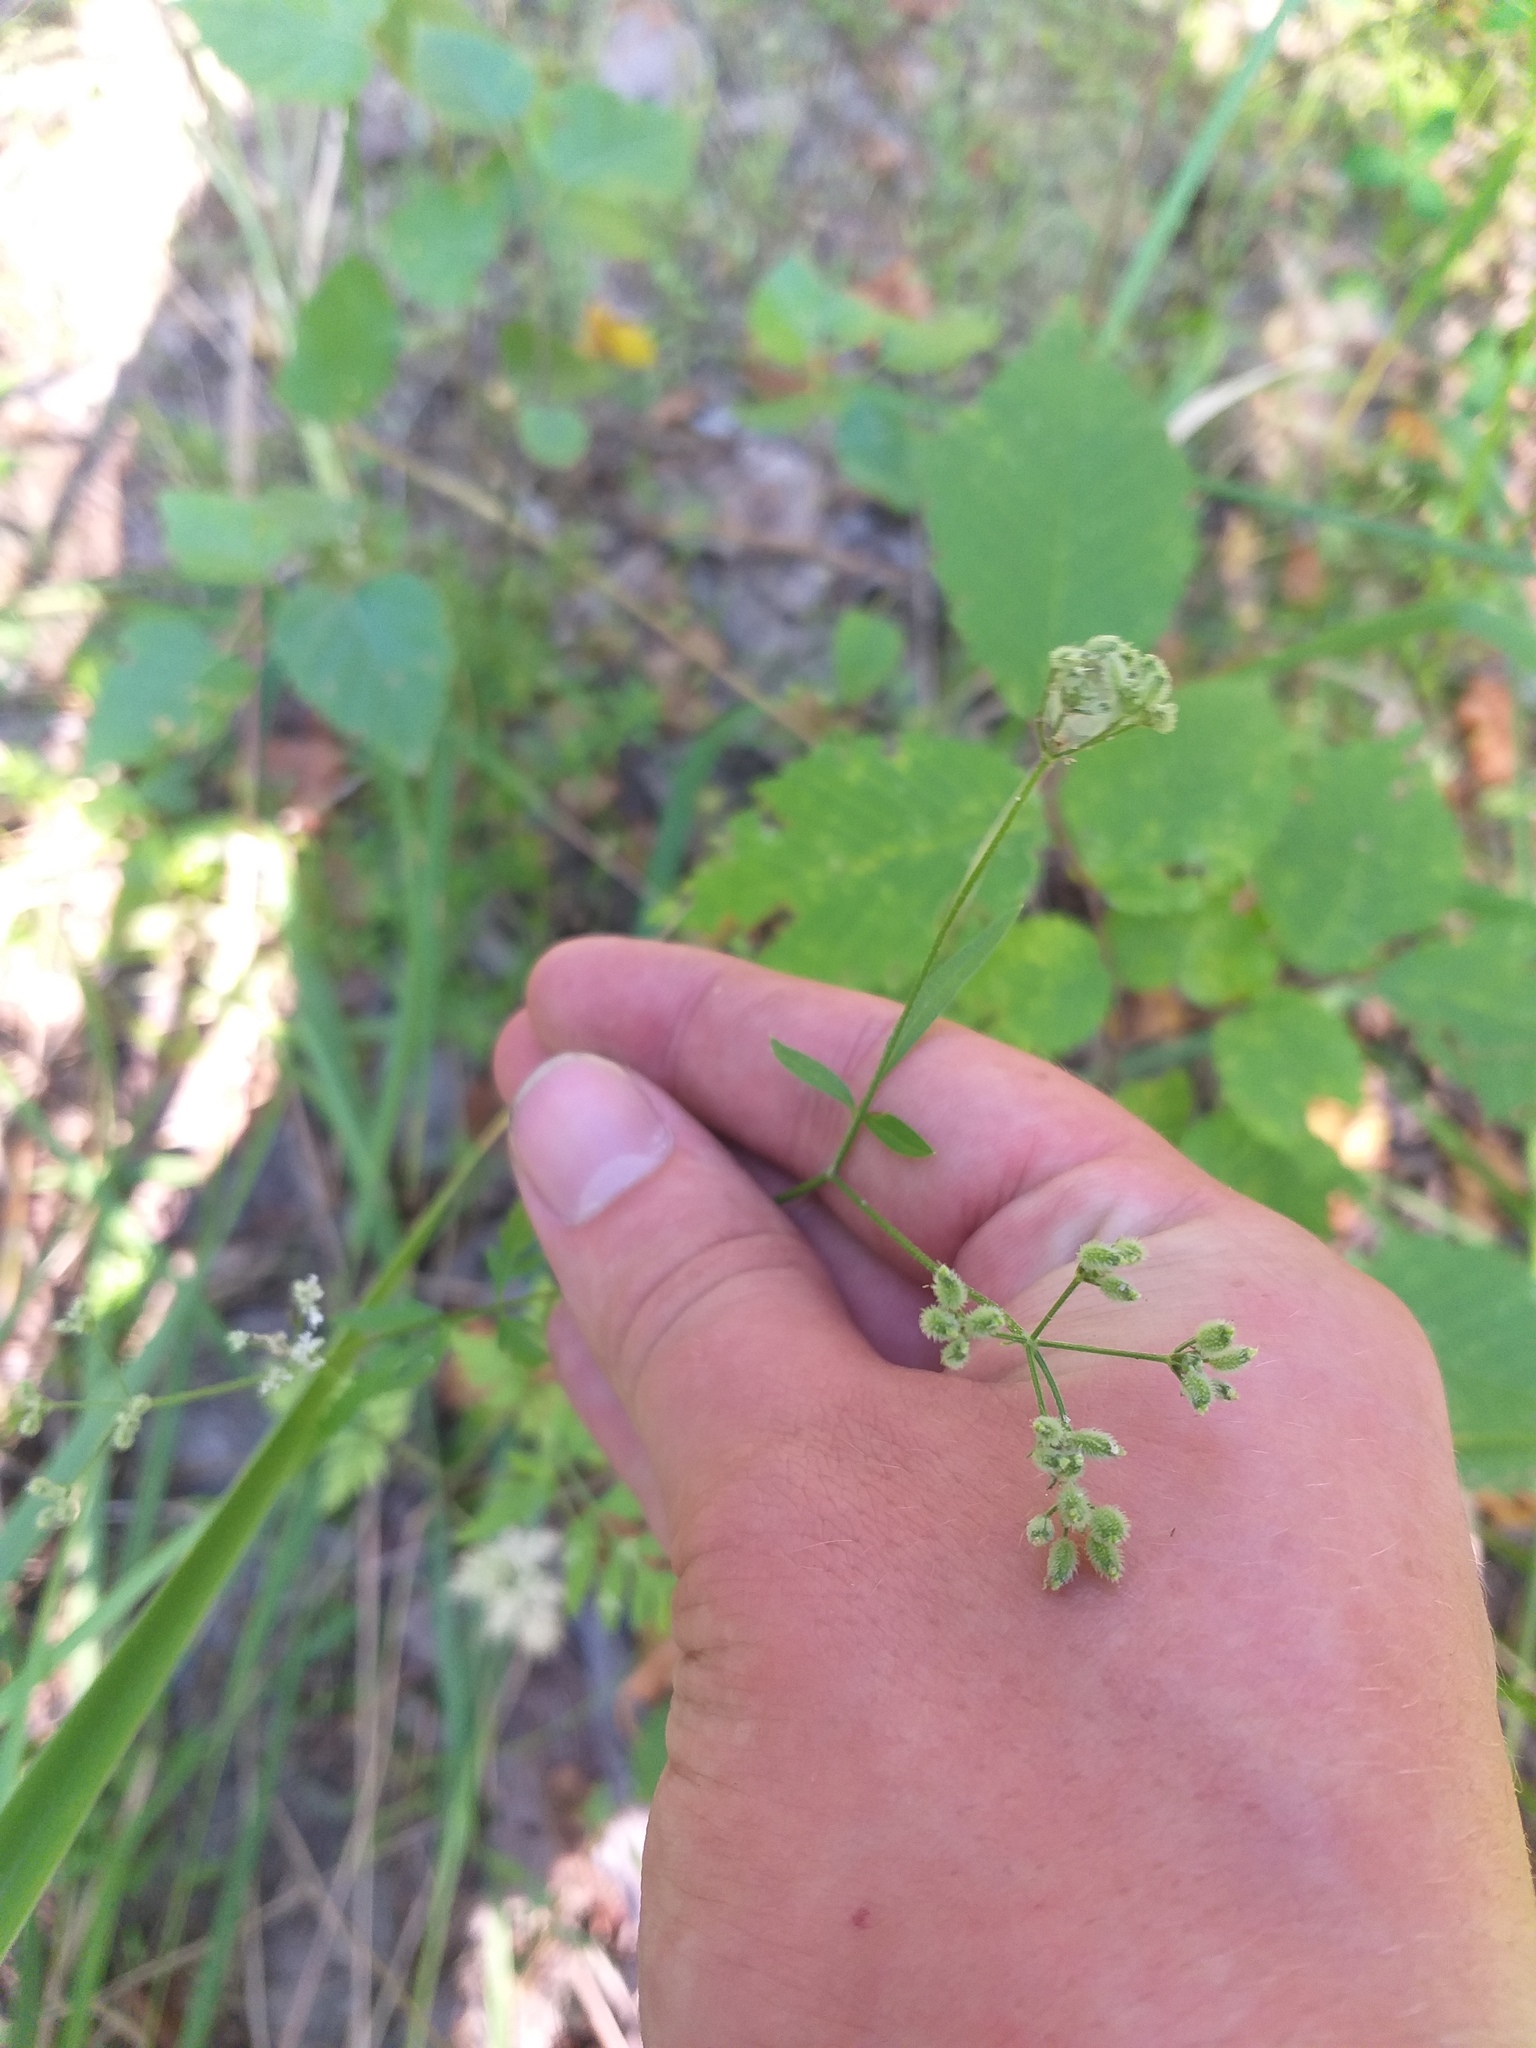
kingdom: Plantae
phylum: Tracheophyta
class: Magnoliopsida
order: Apiales
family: Apiaceae
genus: Torilis
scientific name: Torilis japonica
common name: Upright hedge-parsley
